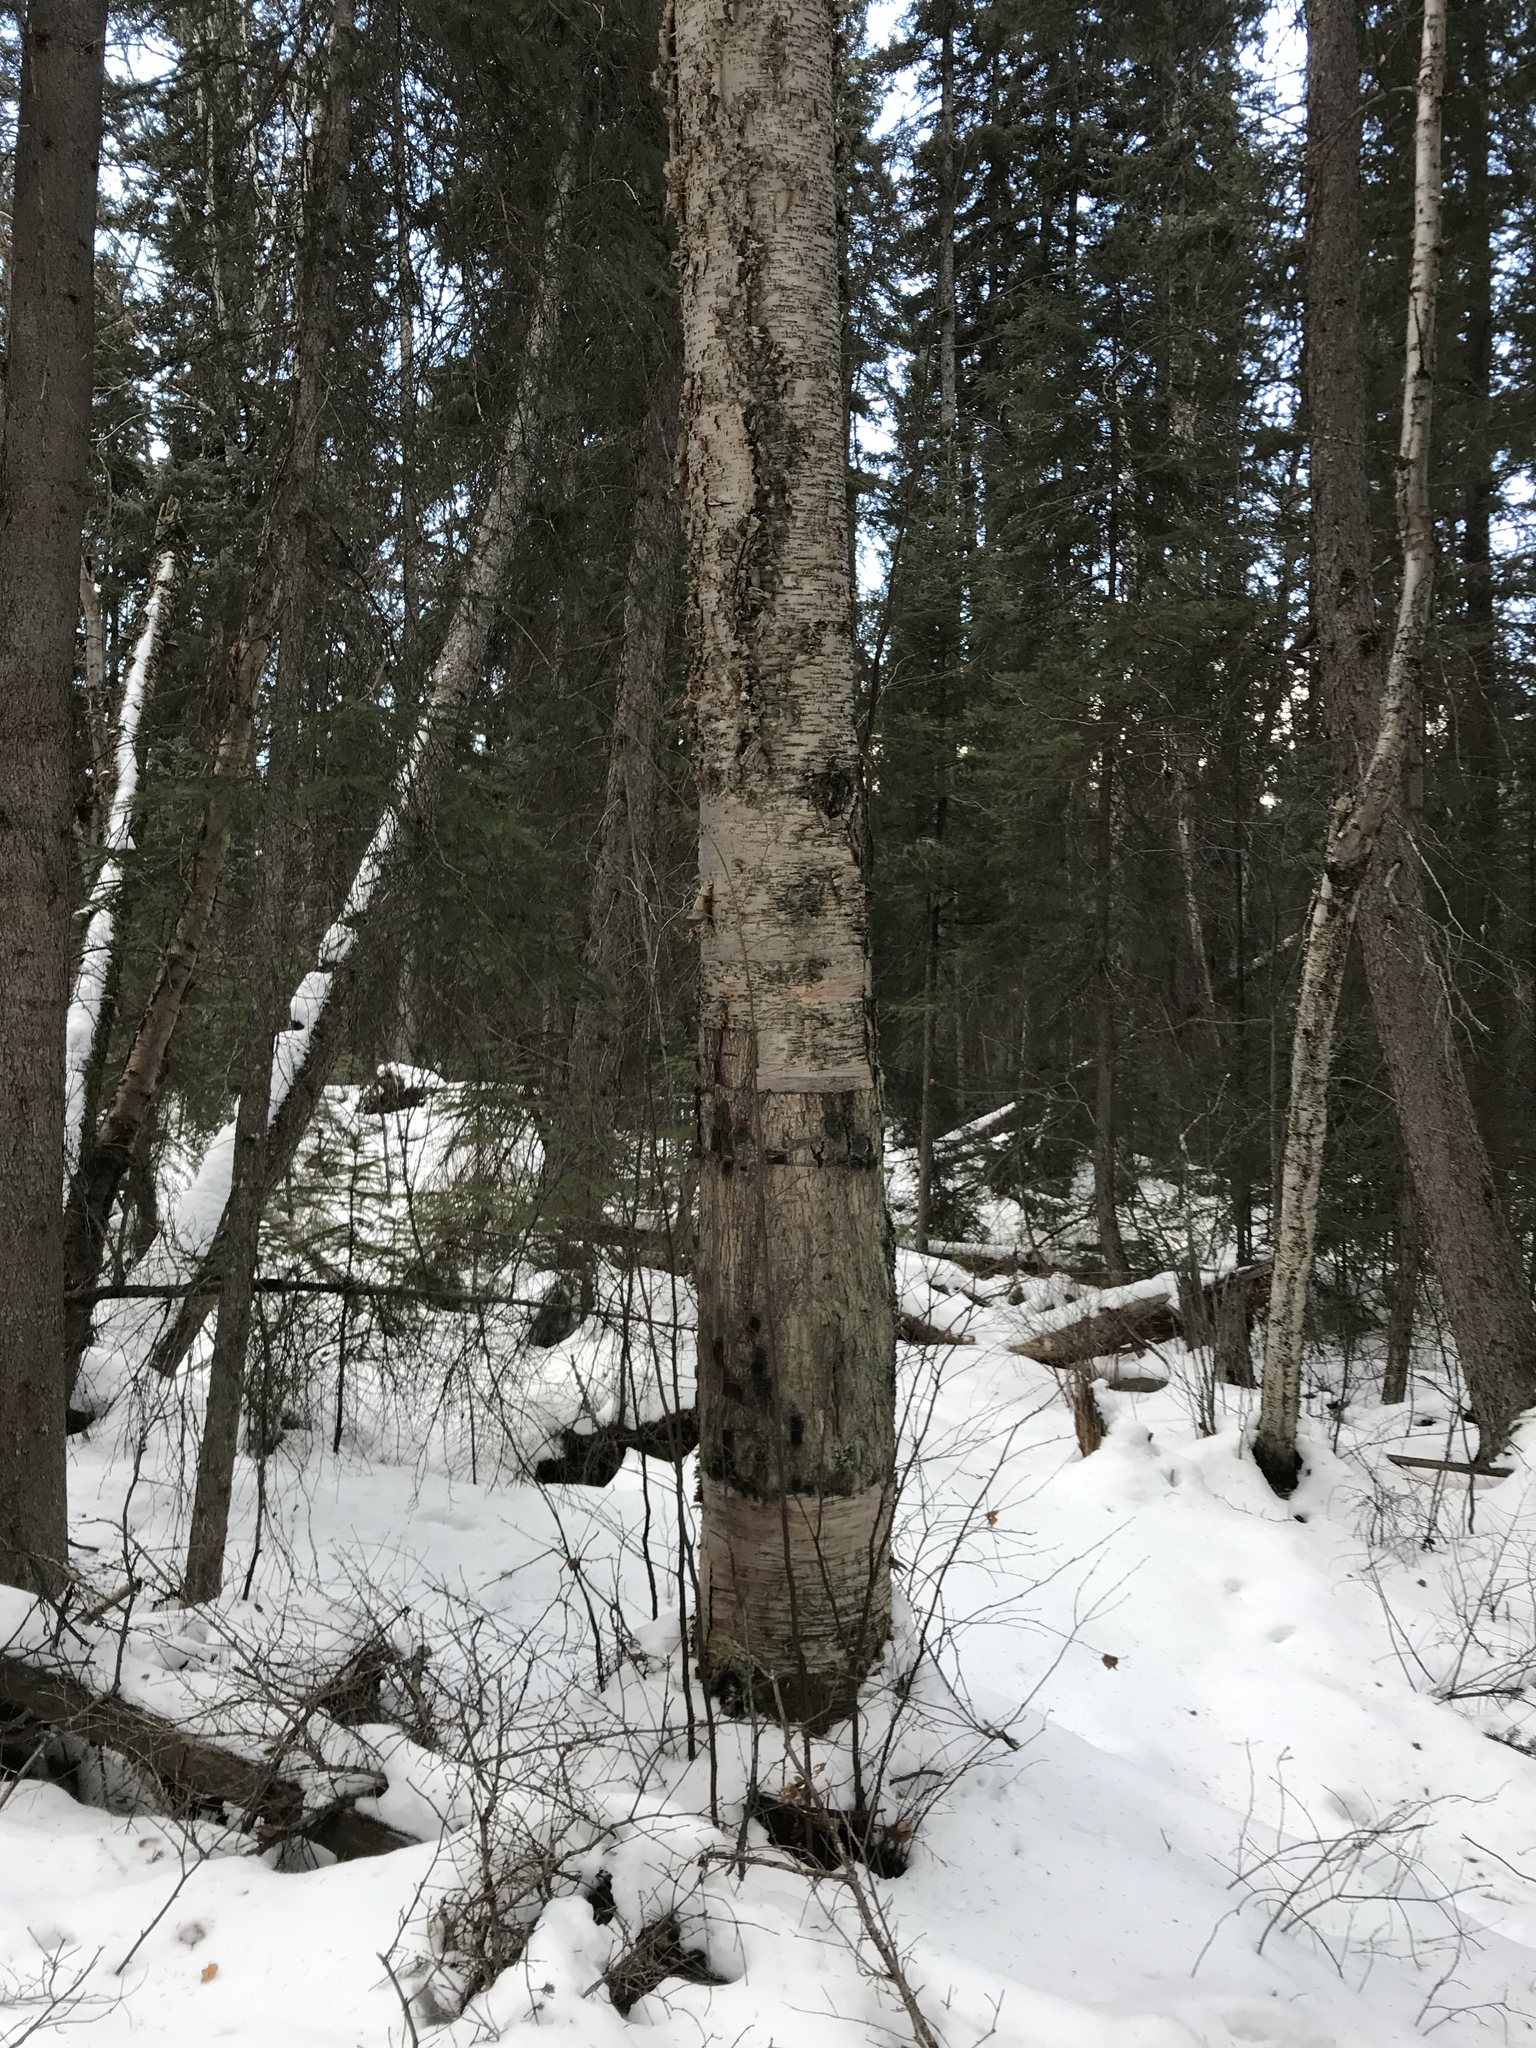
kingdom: Plantae
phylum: Tracheophyta
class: Magnoliopsida
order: Fagales
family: Betulaceae
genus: Betula
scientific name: Betula papyrifera
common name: Paper birch
